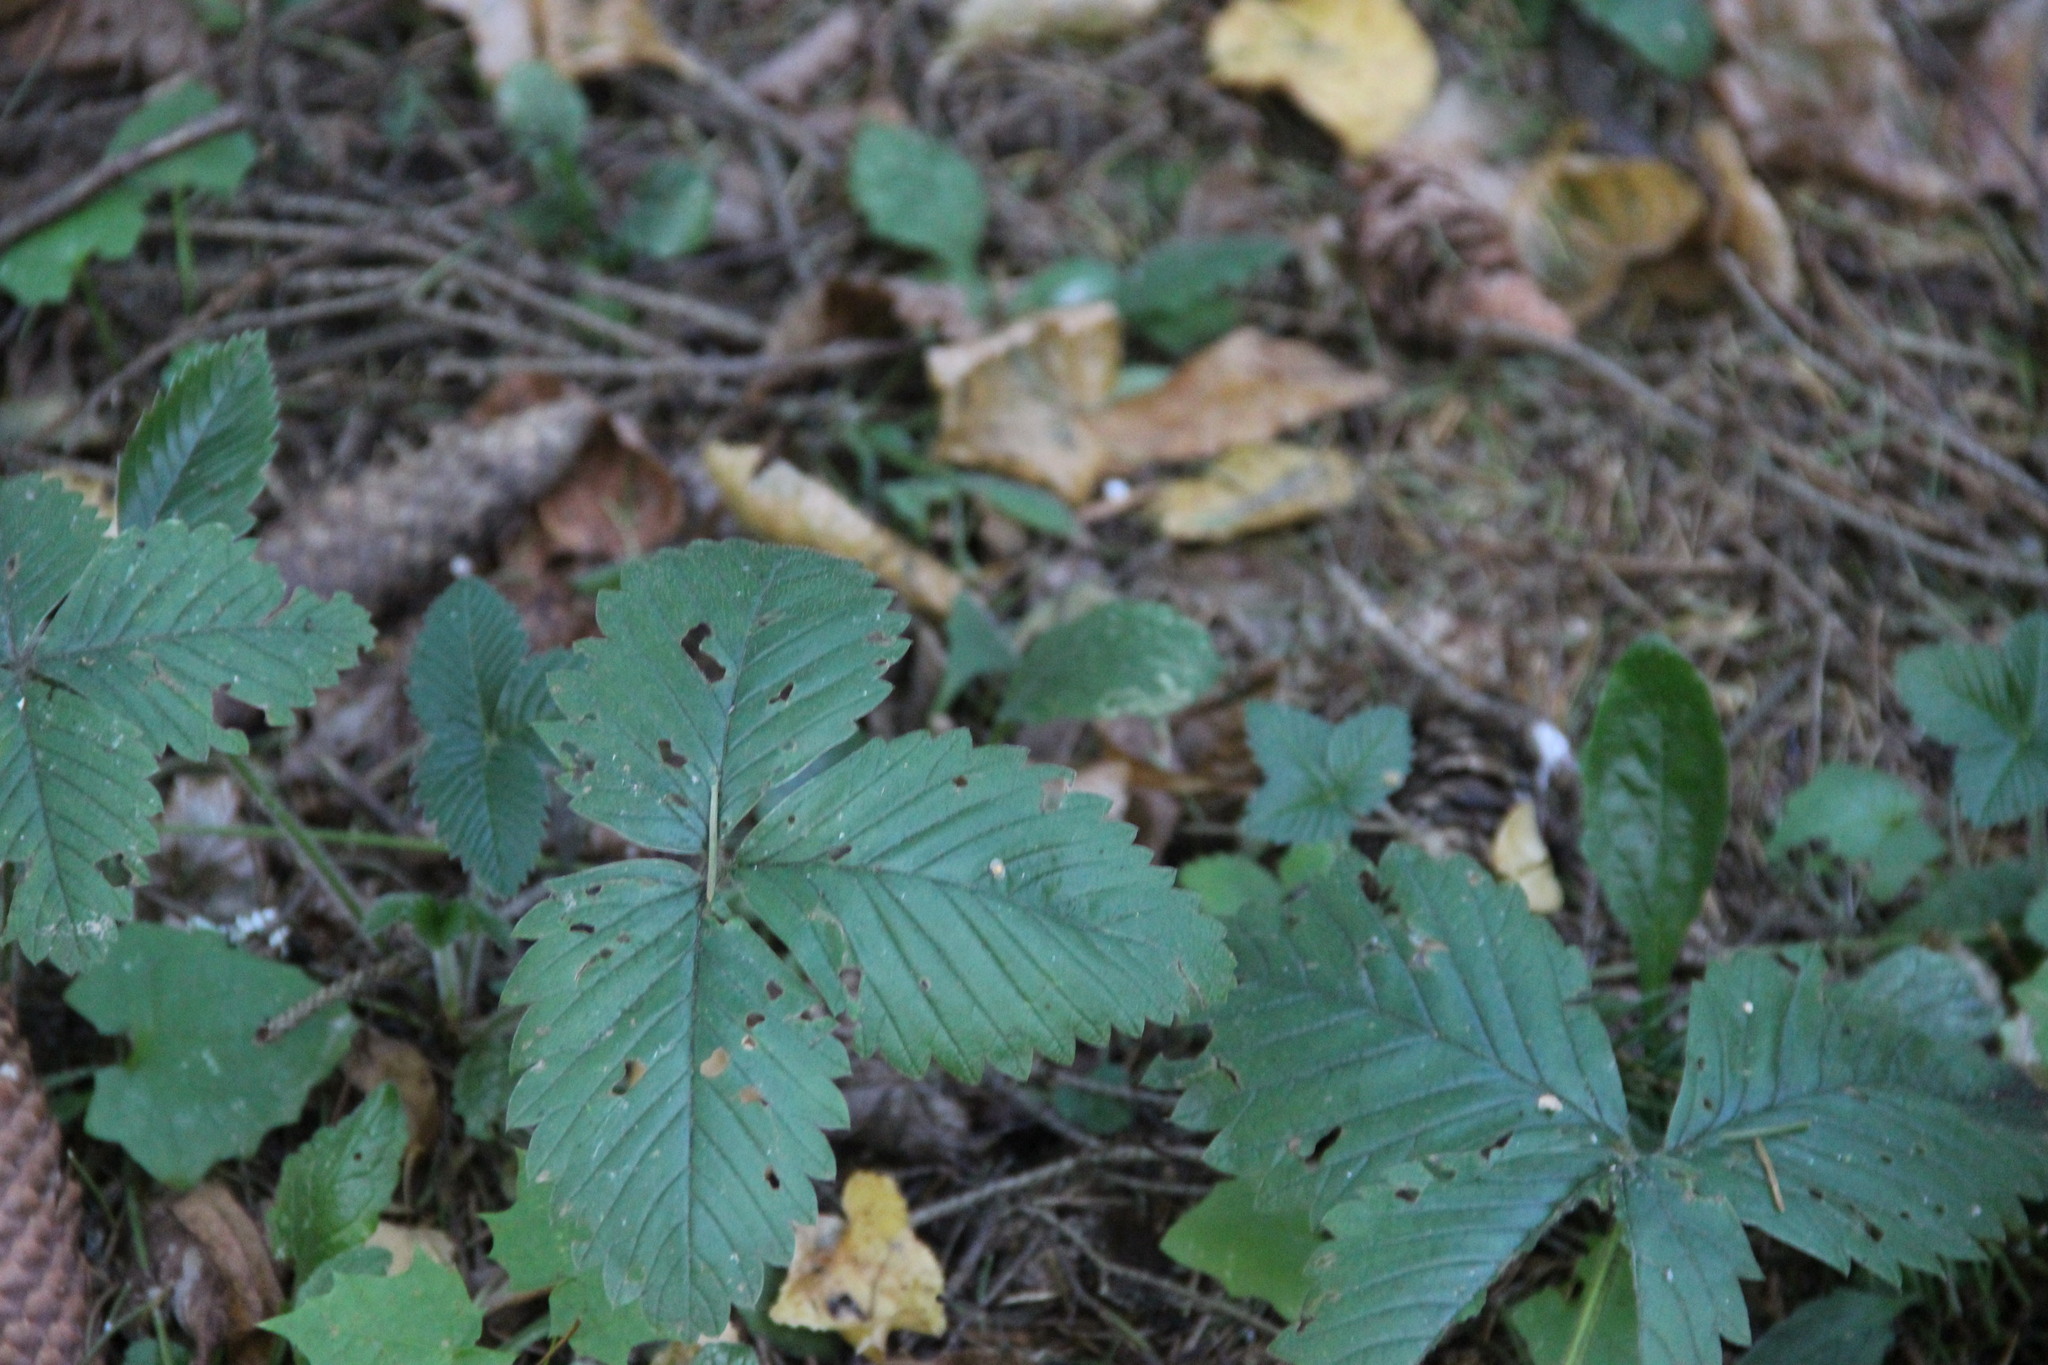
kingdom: Plantae
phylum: Tracheophyta
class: Magnoliopsida
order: Rosales
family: Rosaceae
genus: Fragaria
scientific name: Fragaria moschata
